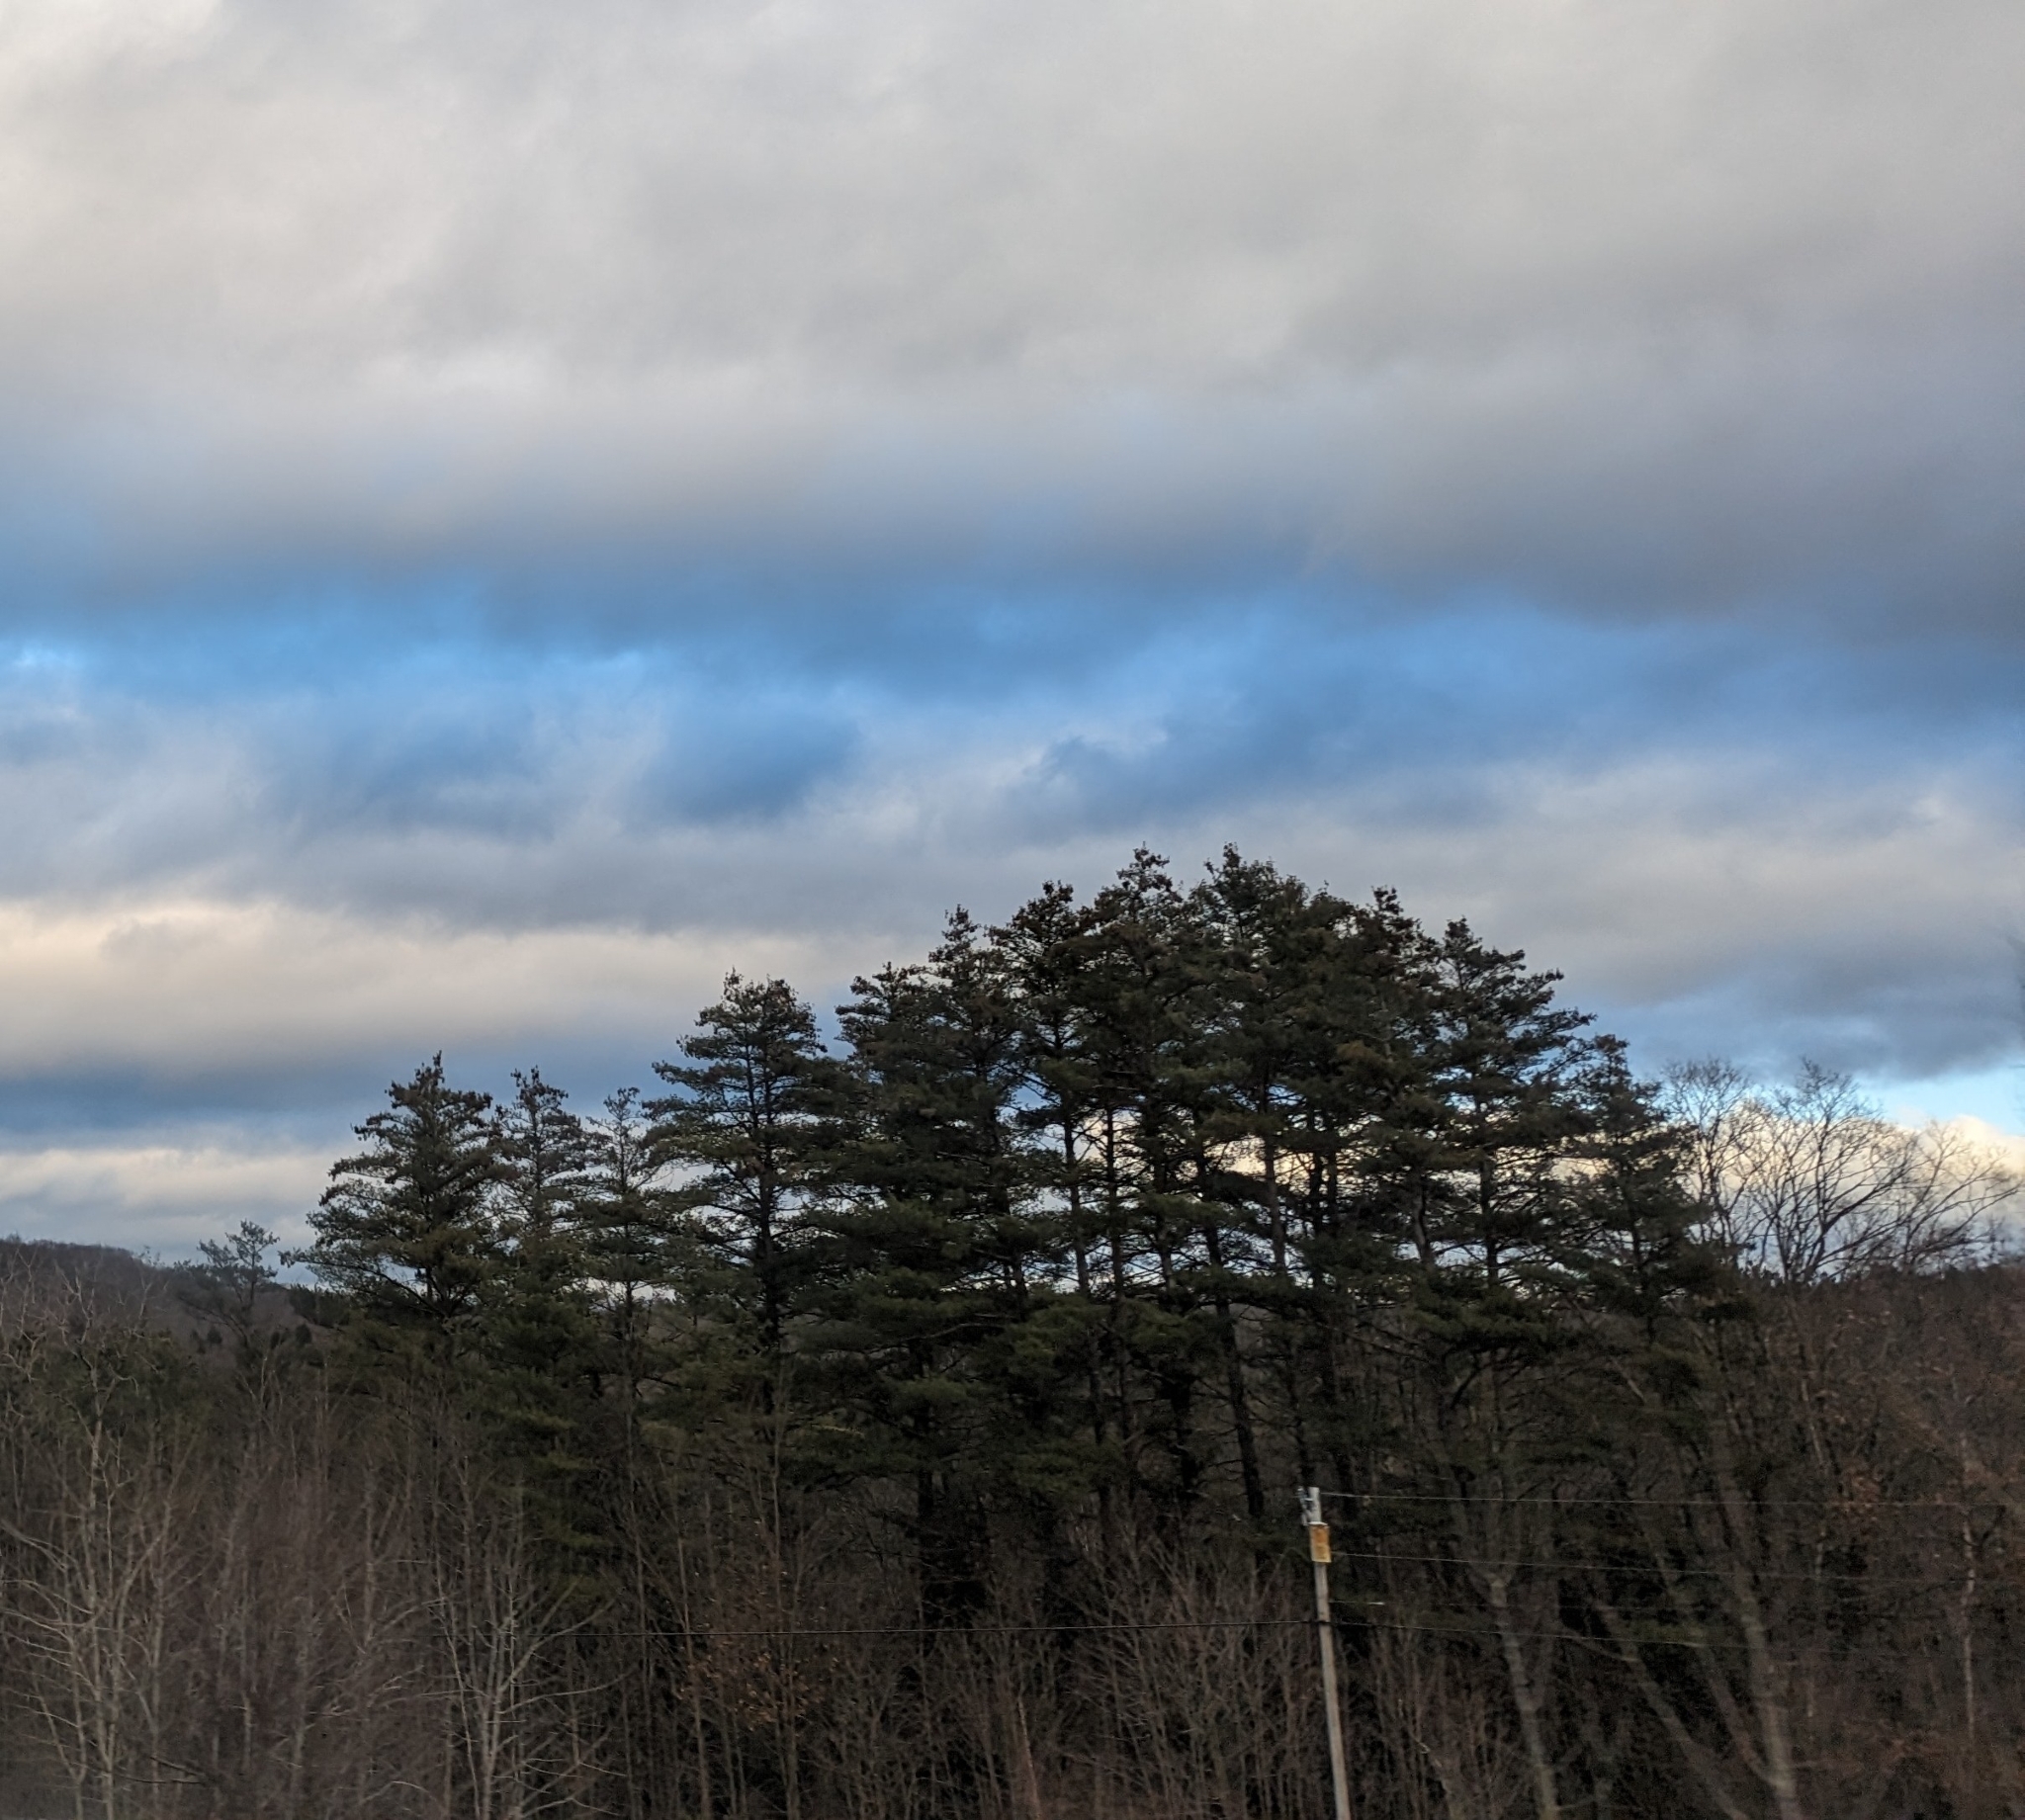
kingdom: Plantae
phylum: Tracheophyta
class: Pinopsida
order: Pinales
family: Pinaceae
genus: Pinus
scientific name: Pinus strobus
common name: Weymouth pine
